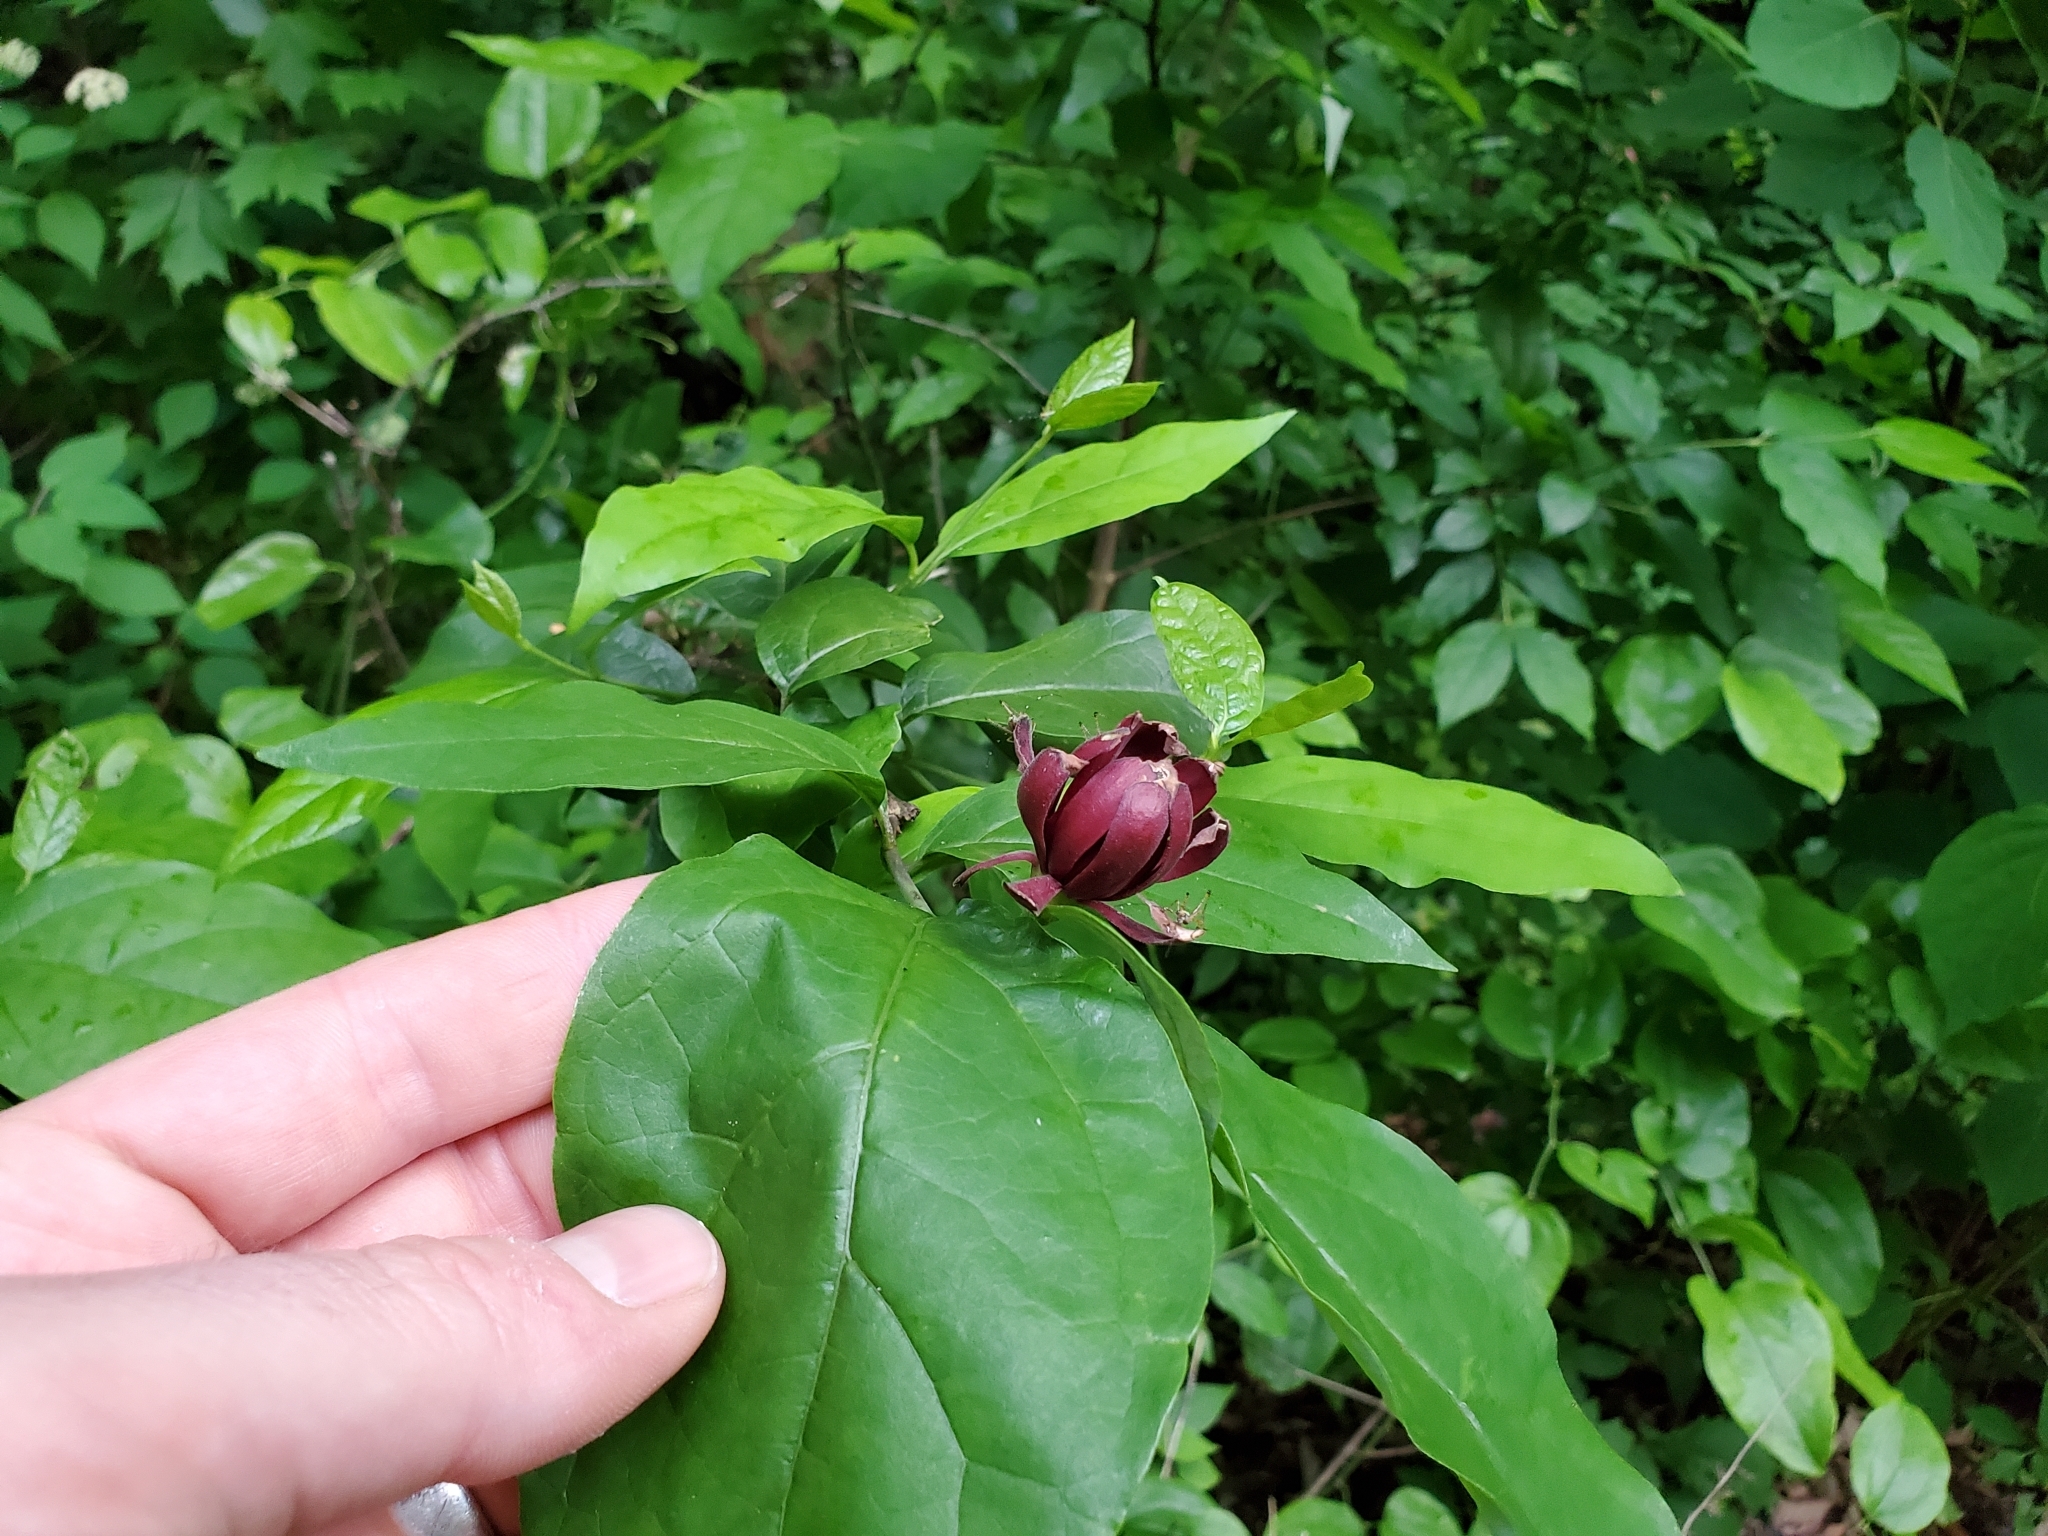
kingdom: Plantae
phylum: Tracheophyta
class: Magnoliopsida
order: Laurales
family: Calycanthaceae
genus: Calycanthus
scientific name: Calycanthus floridus
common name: Carolina-allspice
